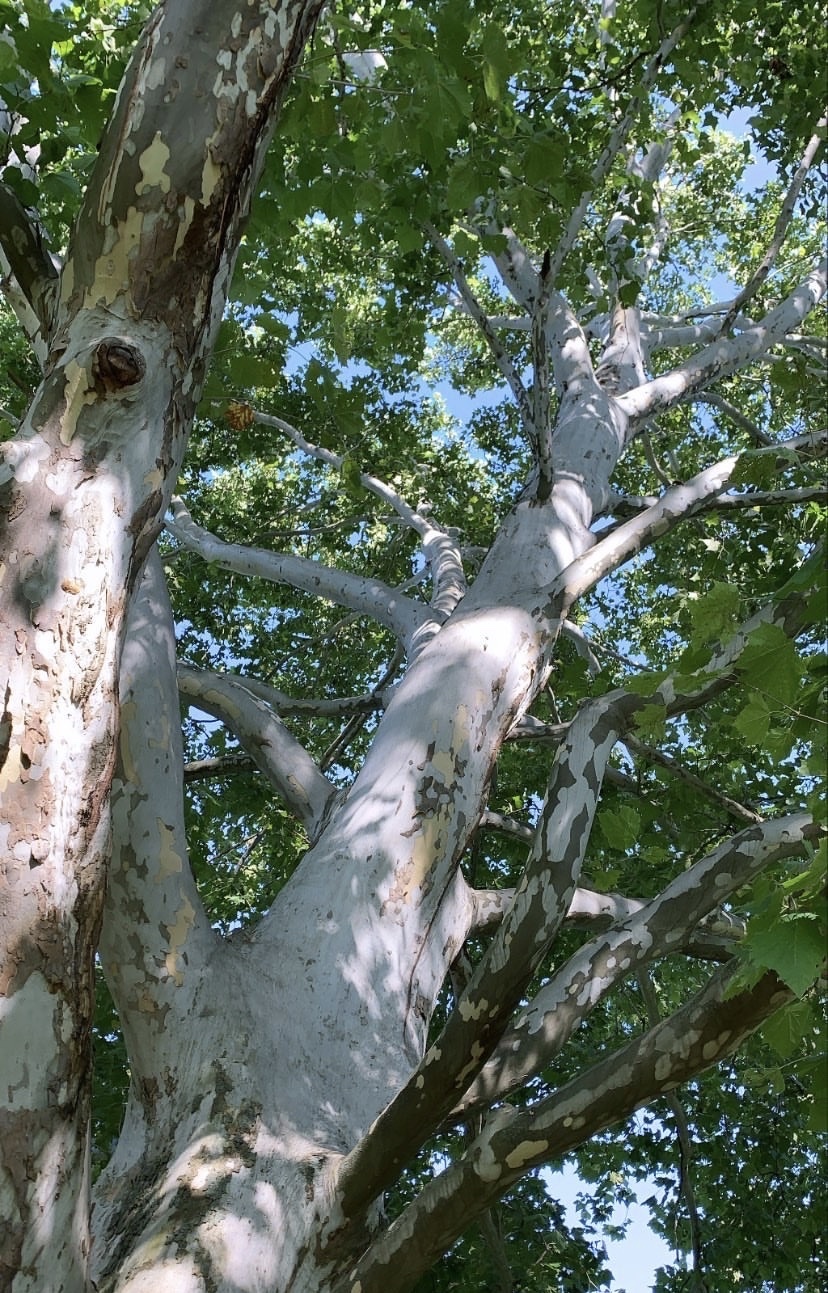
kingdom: Plantae
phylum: Tracheophyta
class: Magnoliopsida
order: Proteales
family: Platanaceae
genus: Platanus
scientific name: Platanus occidentalis
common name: American sycamore
